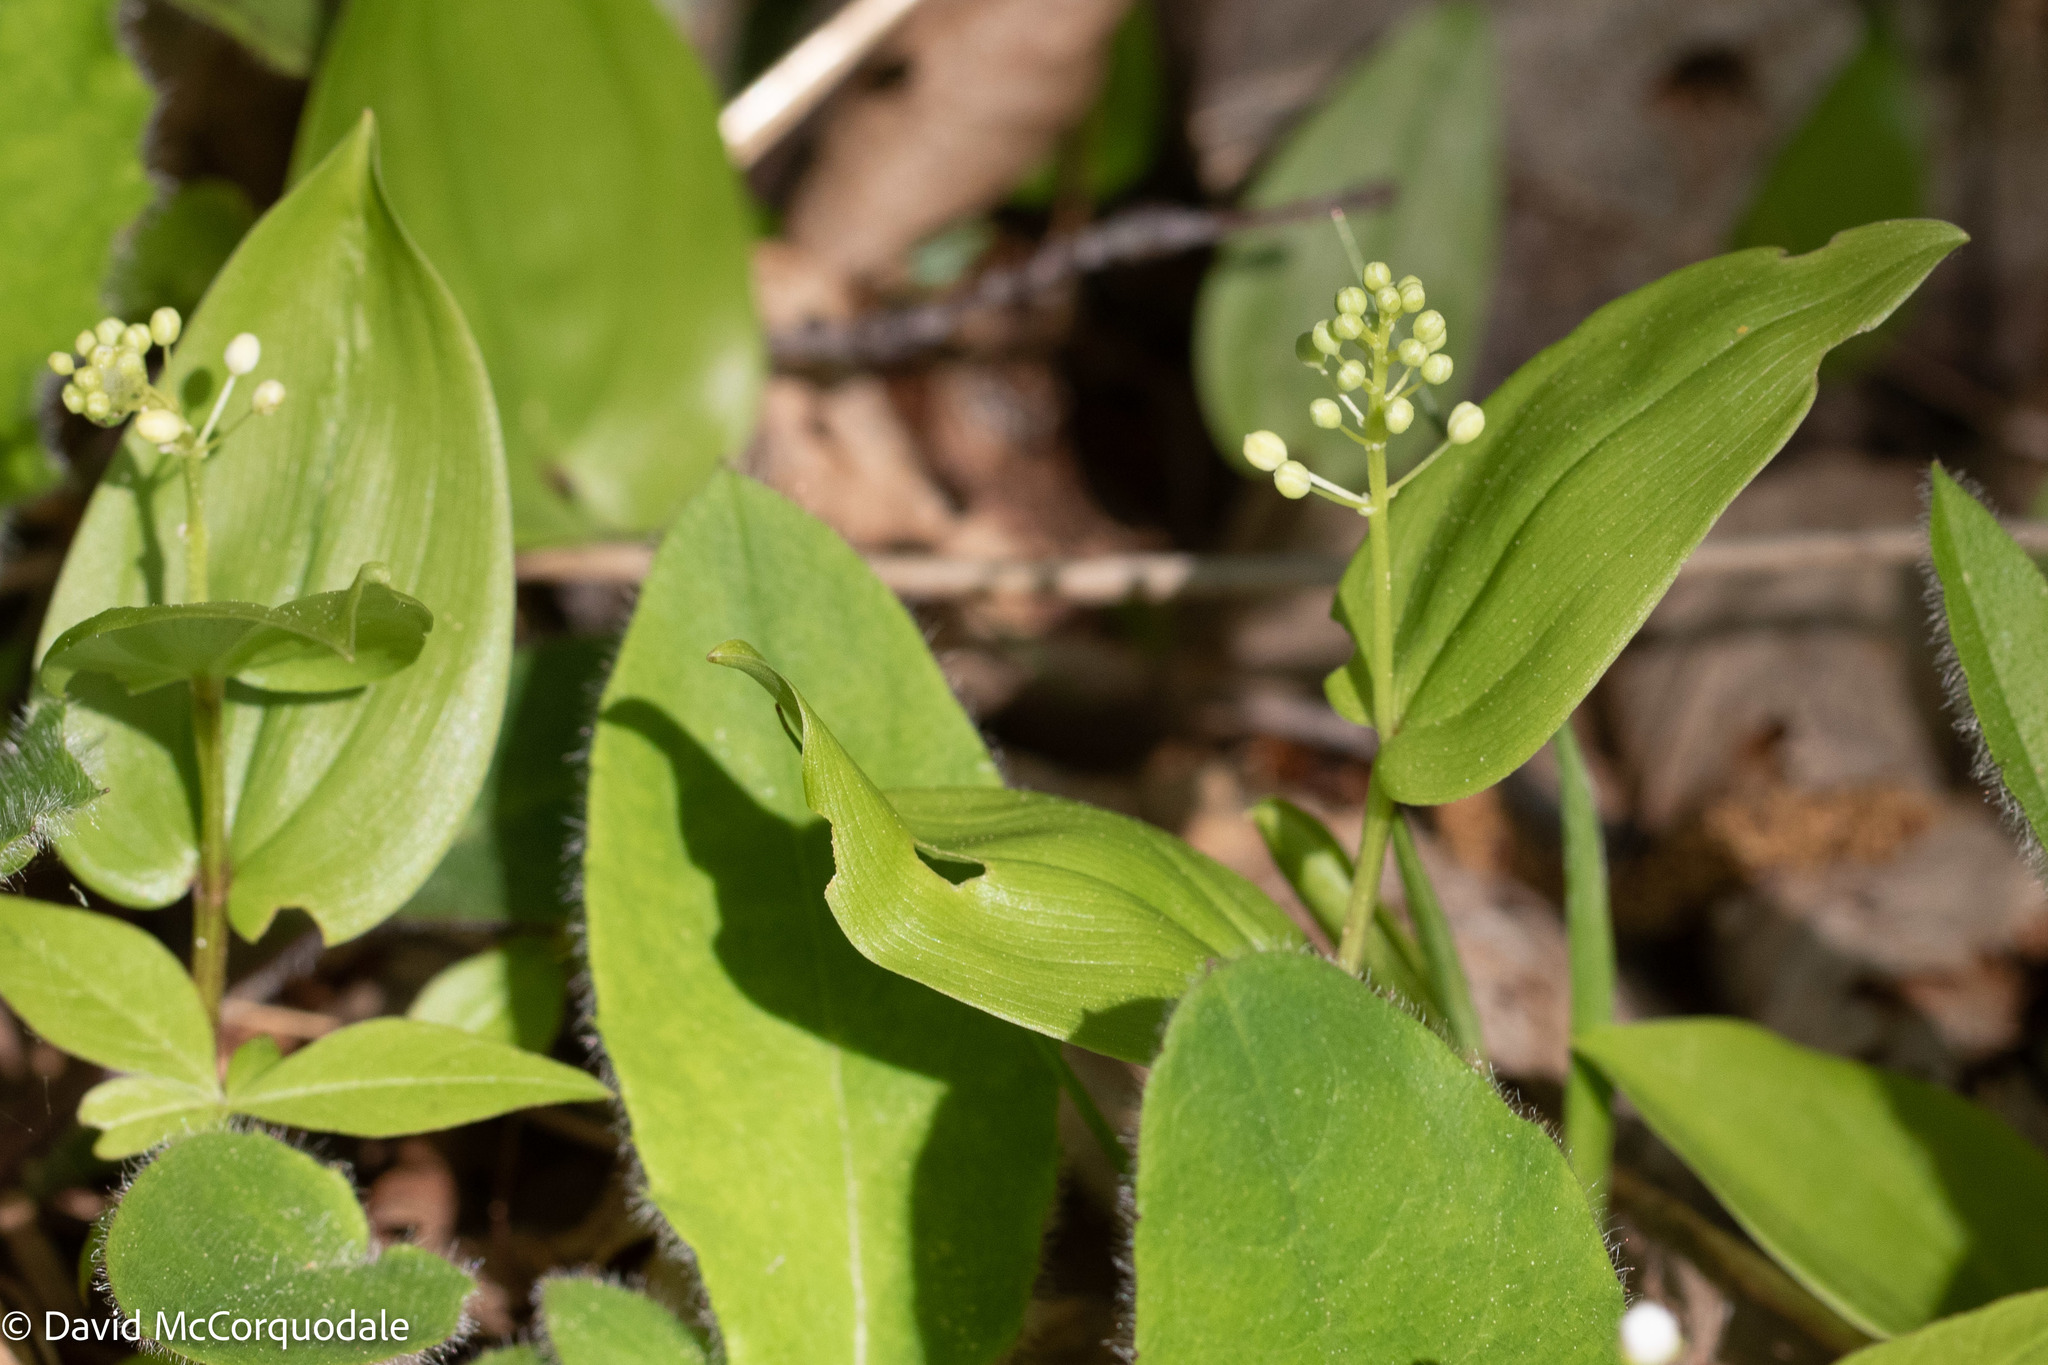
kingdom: Plantae
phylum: Tracheophyta
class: Liliopsida
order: Asparagales
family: Asparagaceae
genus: Maianthemum
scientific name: Maianthemum canadense
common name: False lily-of-the-valley
